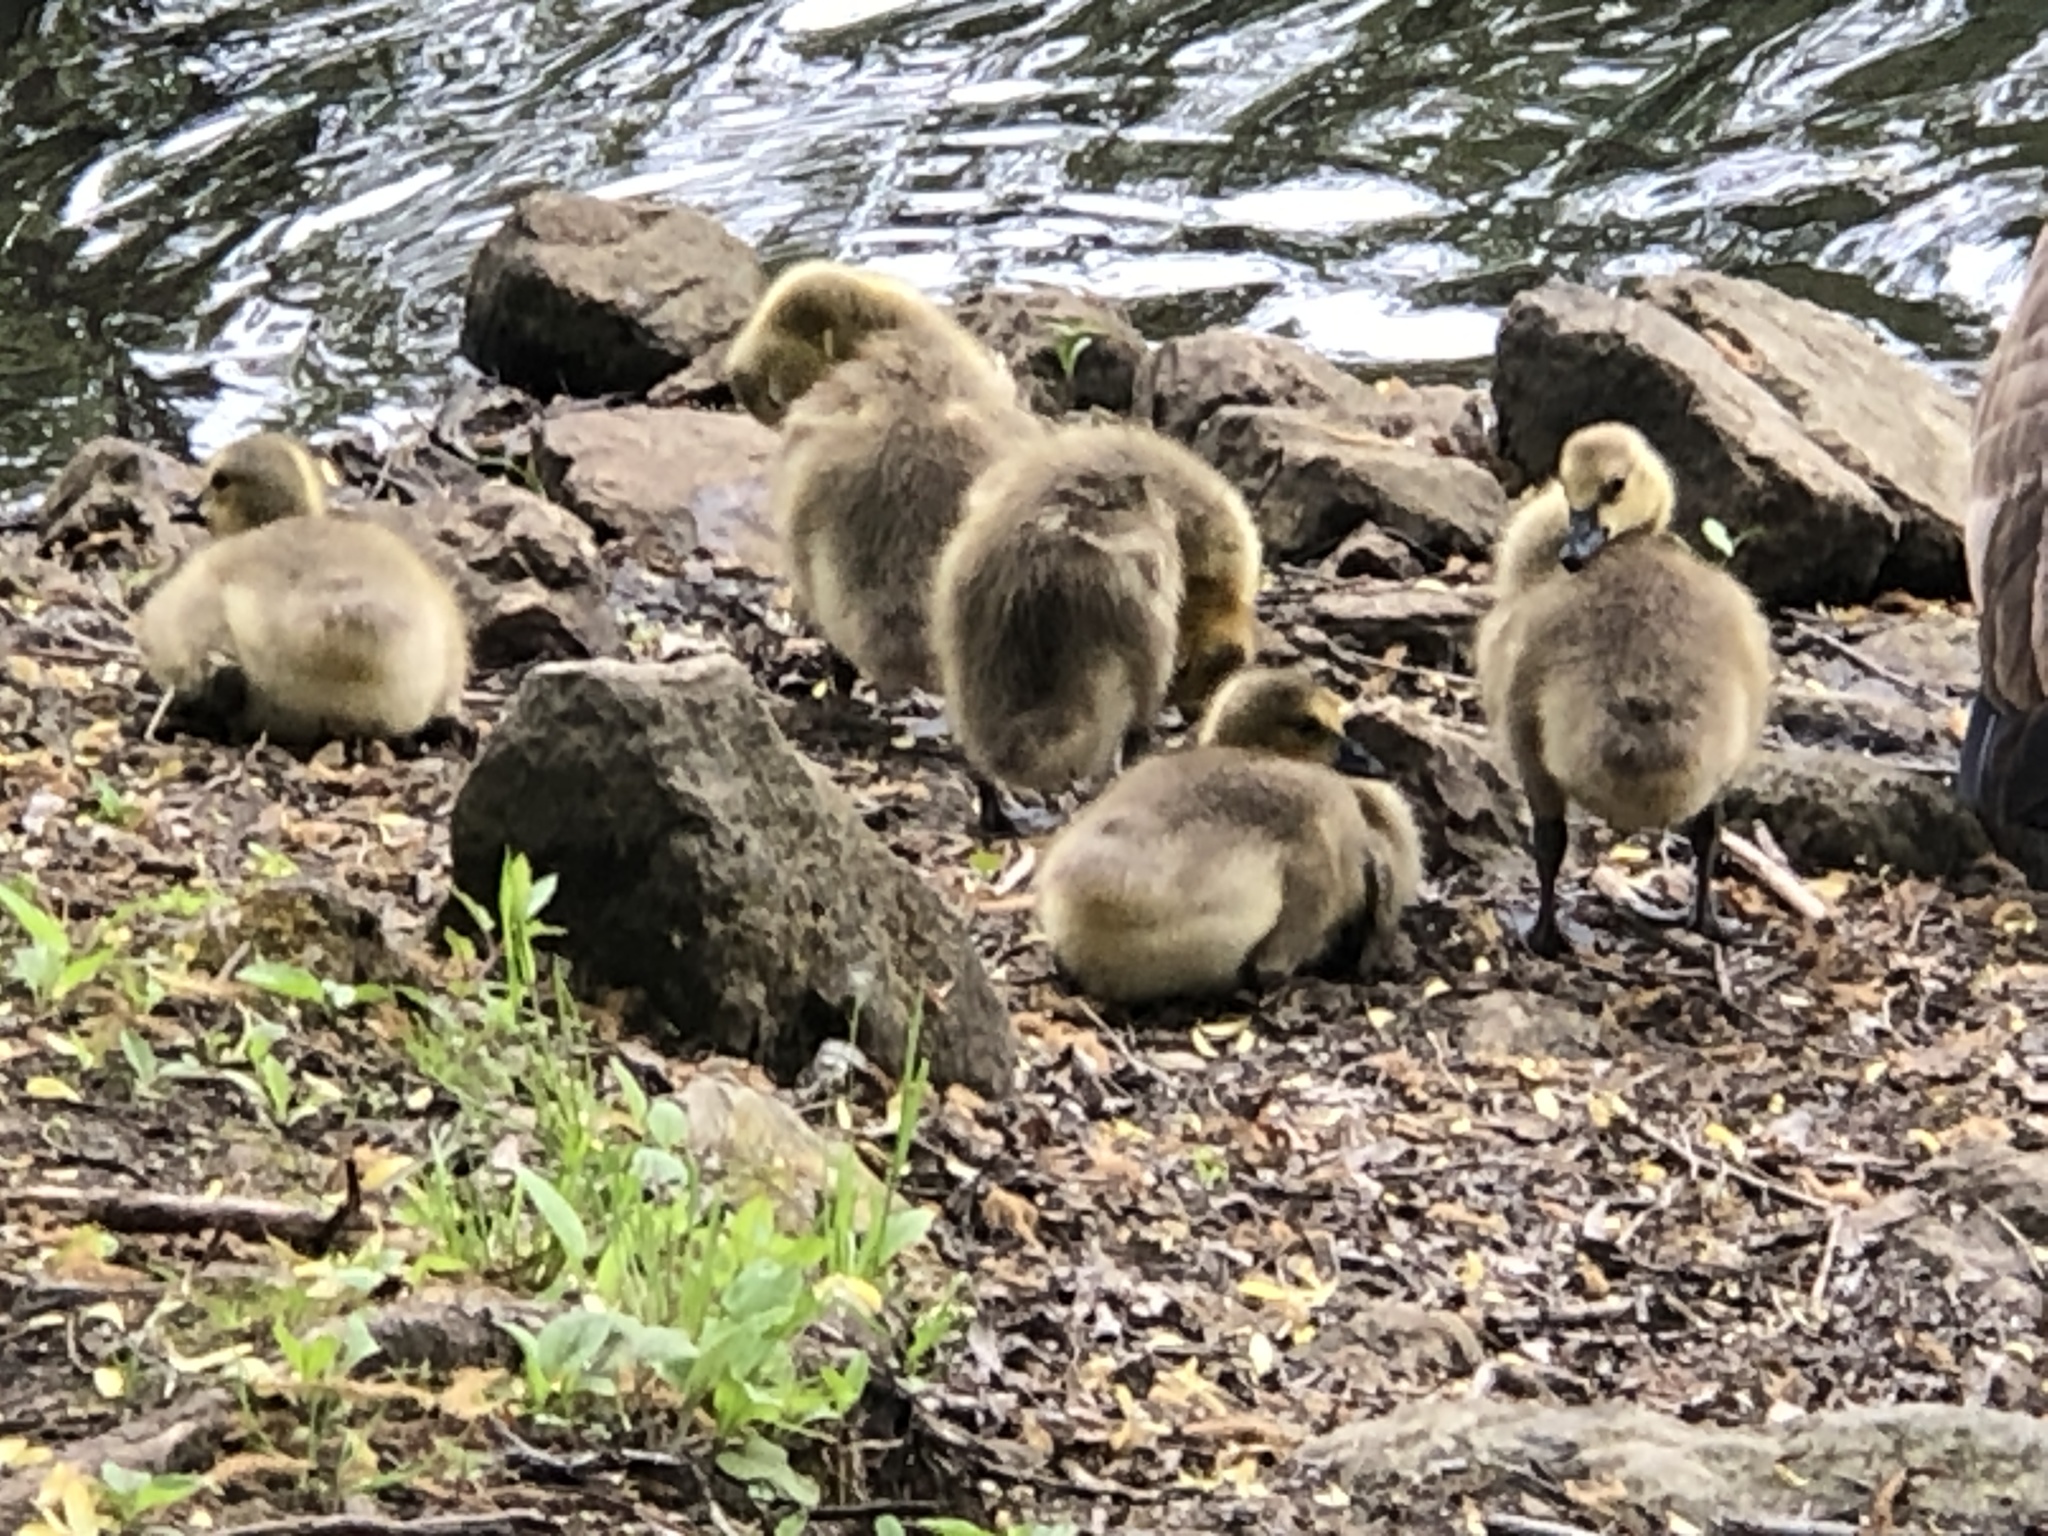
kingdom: Animalia
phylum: Chordata
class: Aves
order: Anseriformes
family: Anatidae
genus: Branta
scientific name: Branta canadensis
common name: Canada goose
